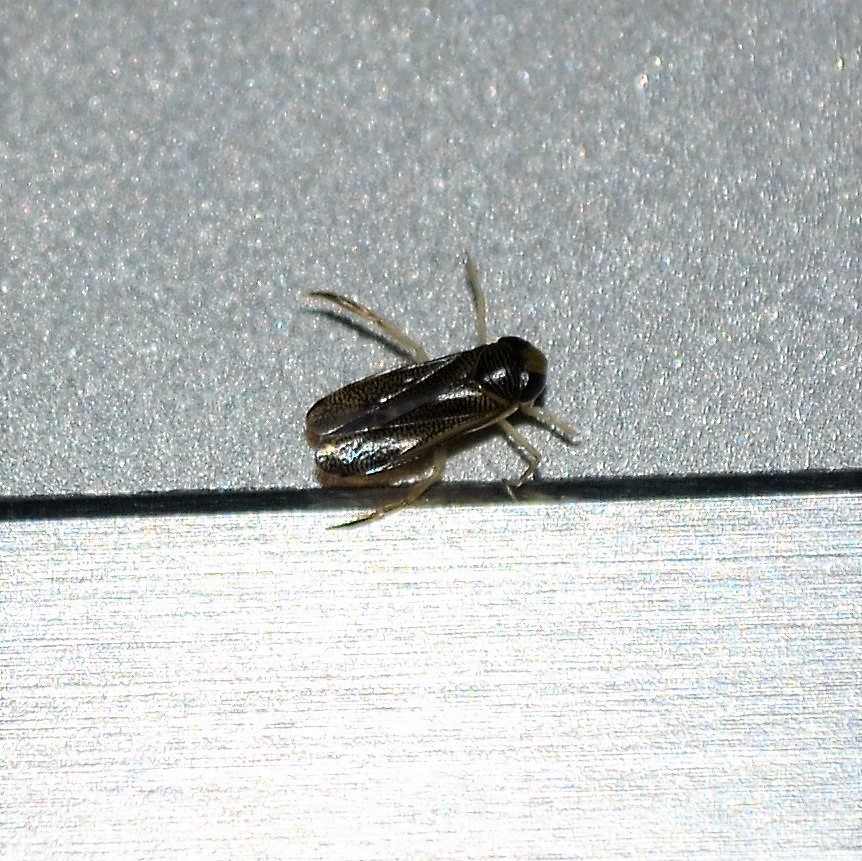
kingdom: Animalia
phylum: Arthropoda
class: Insecta
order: Hemiptera
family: Corixidae
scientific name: Corixidae
